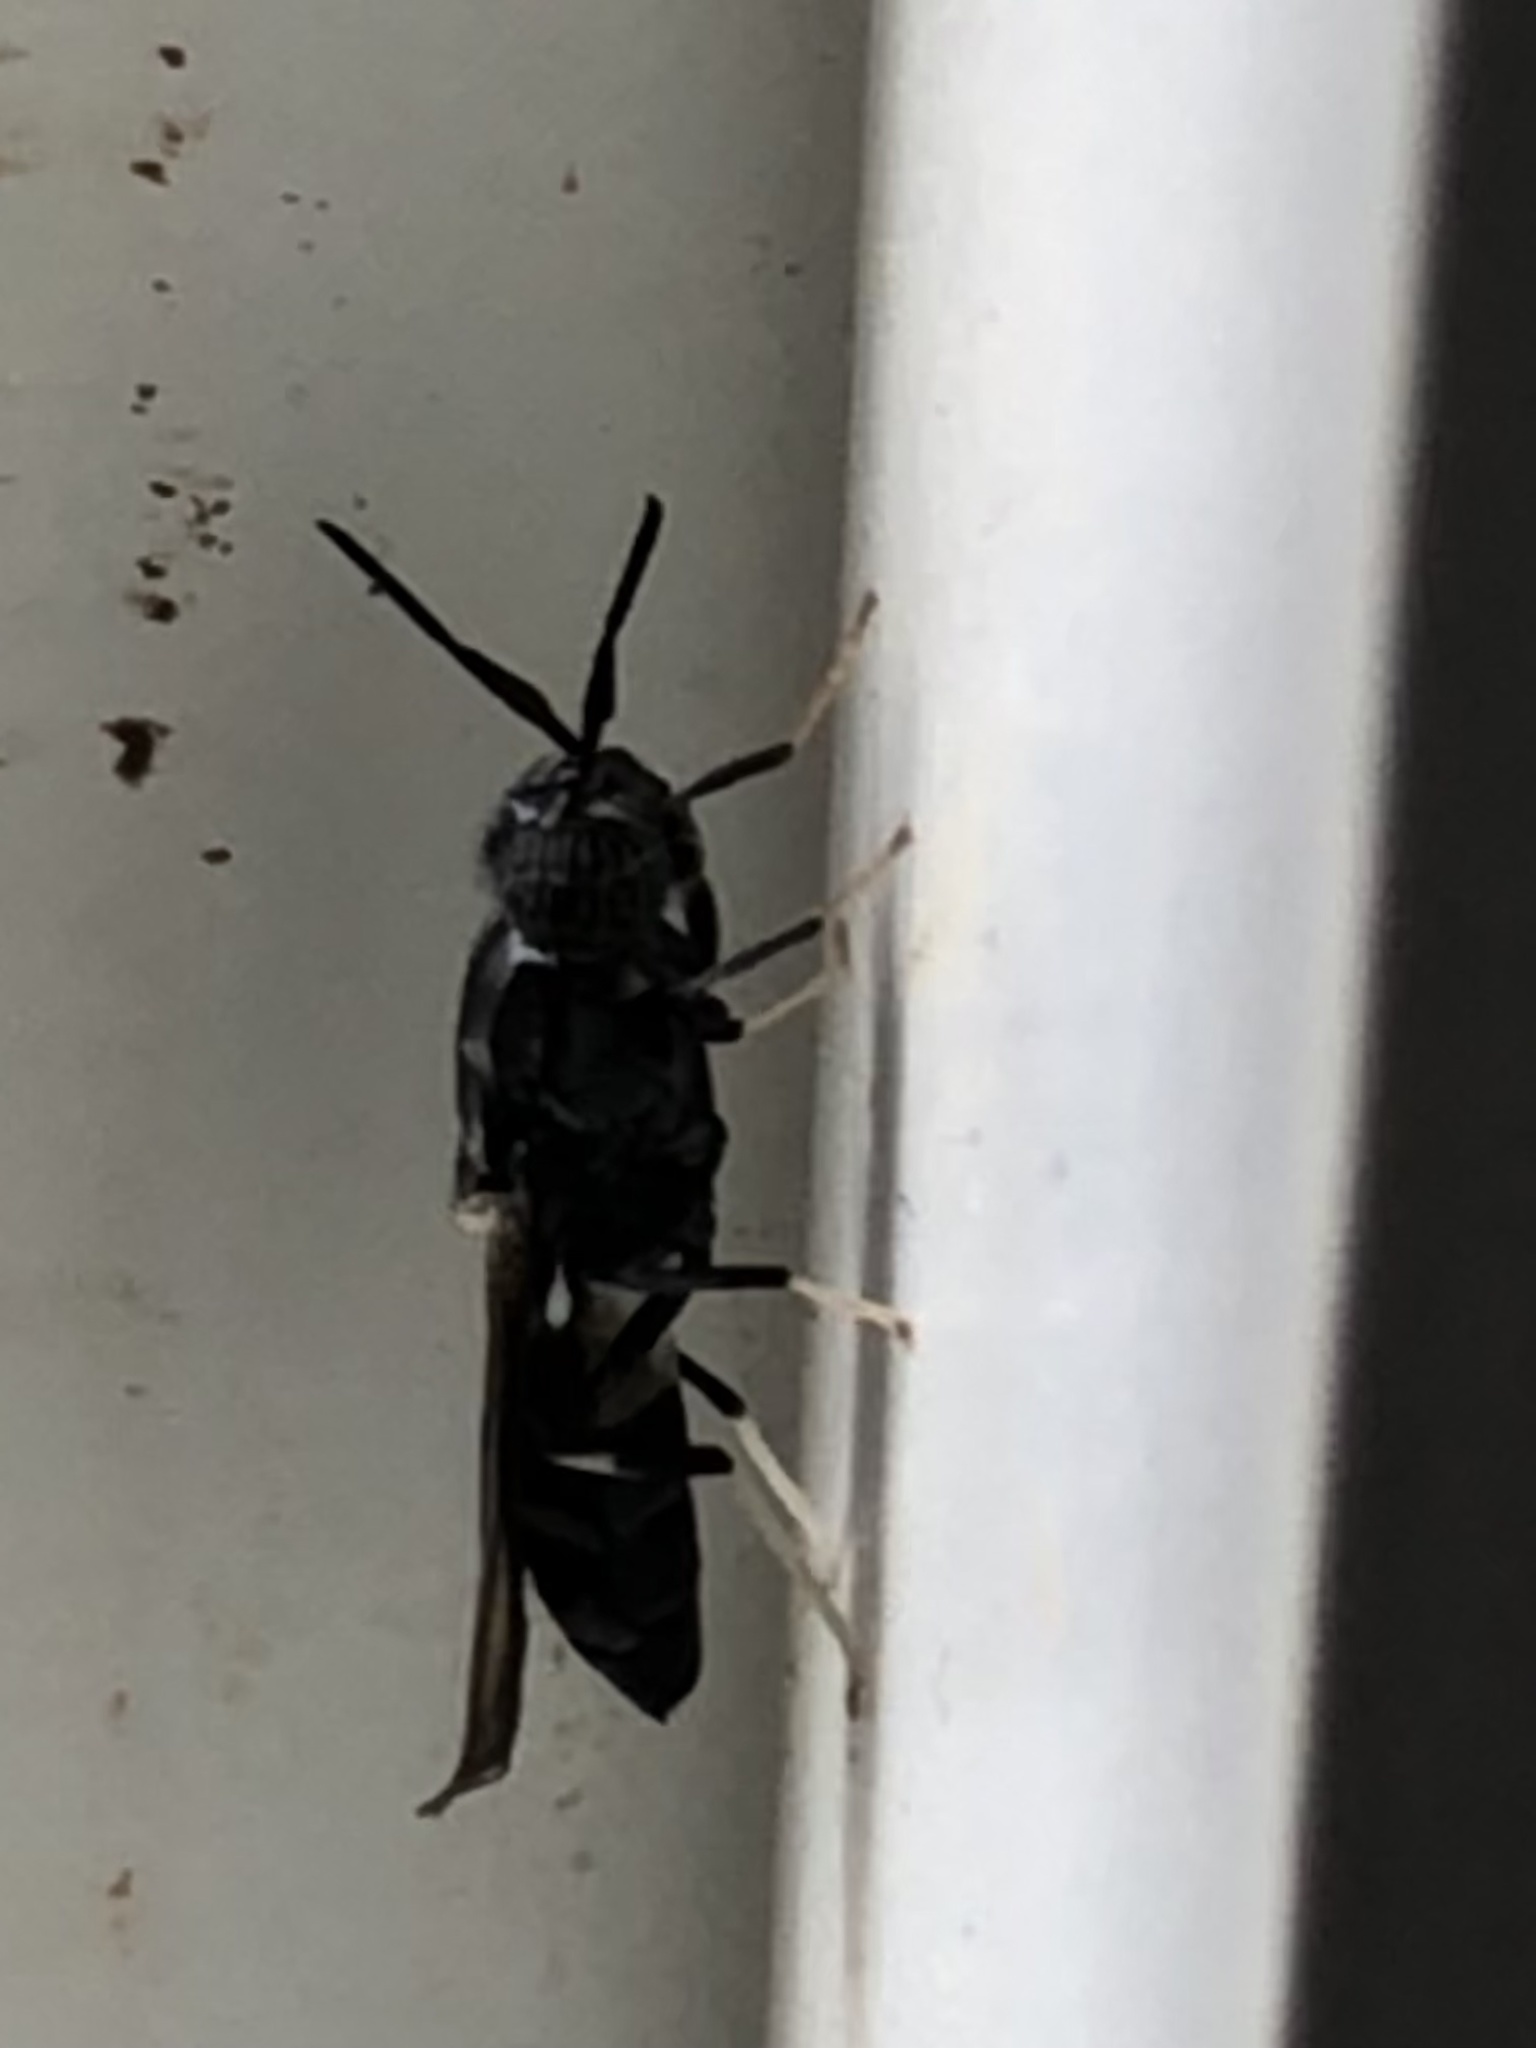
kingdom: Animalia
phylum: Arthropoda
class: Insecta
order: Diptera
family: Stratiomyidae
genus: Hermetia
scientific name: Hermetia illucens
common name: Black soldier fly
